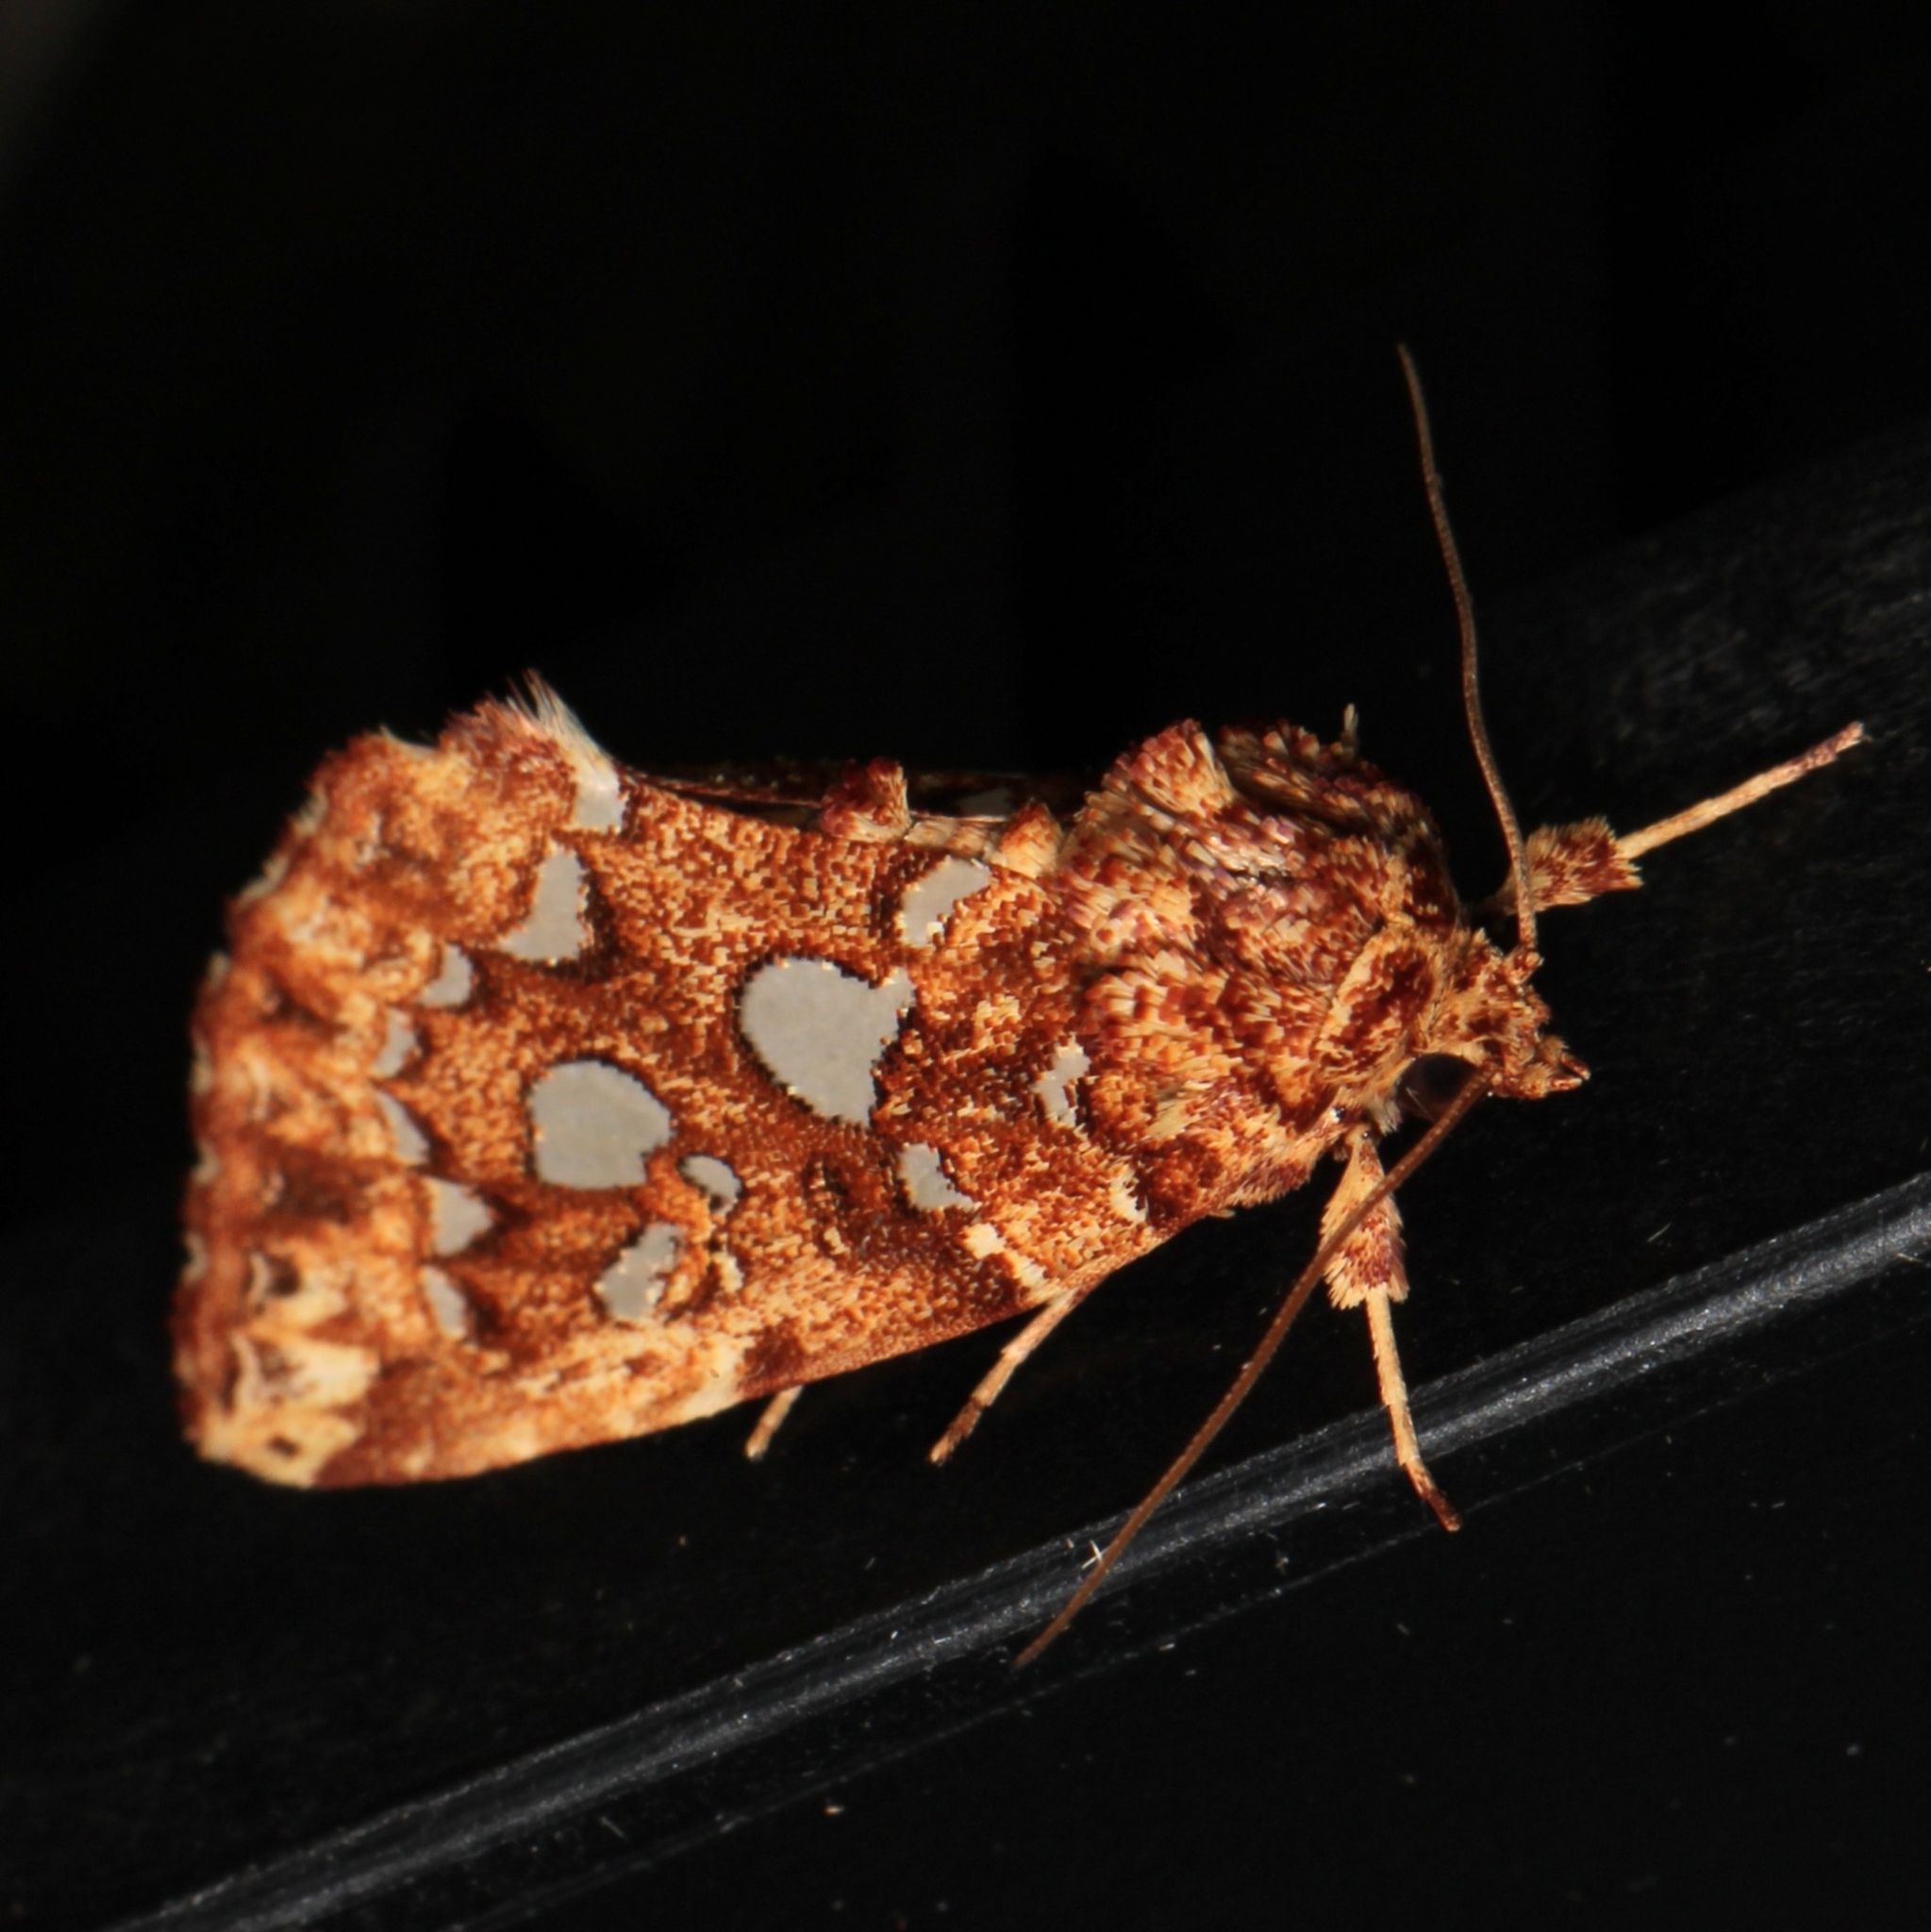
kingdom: Animalia
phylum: Arthropoda
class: Insecta
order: Lepidoptera
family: Noctuidae
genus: Callopistria
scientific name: Callopistria cordata
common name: Silver-spotted fern moth
